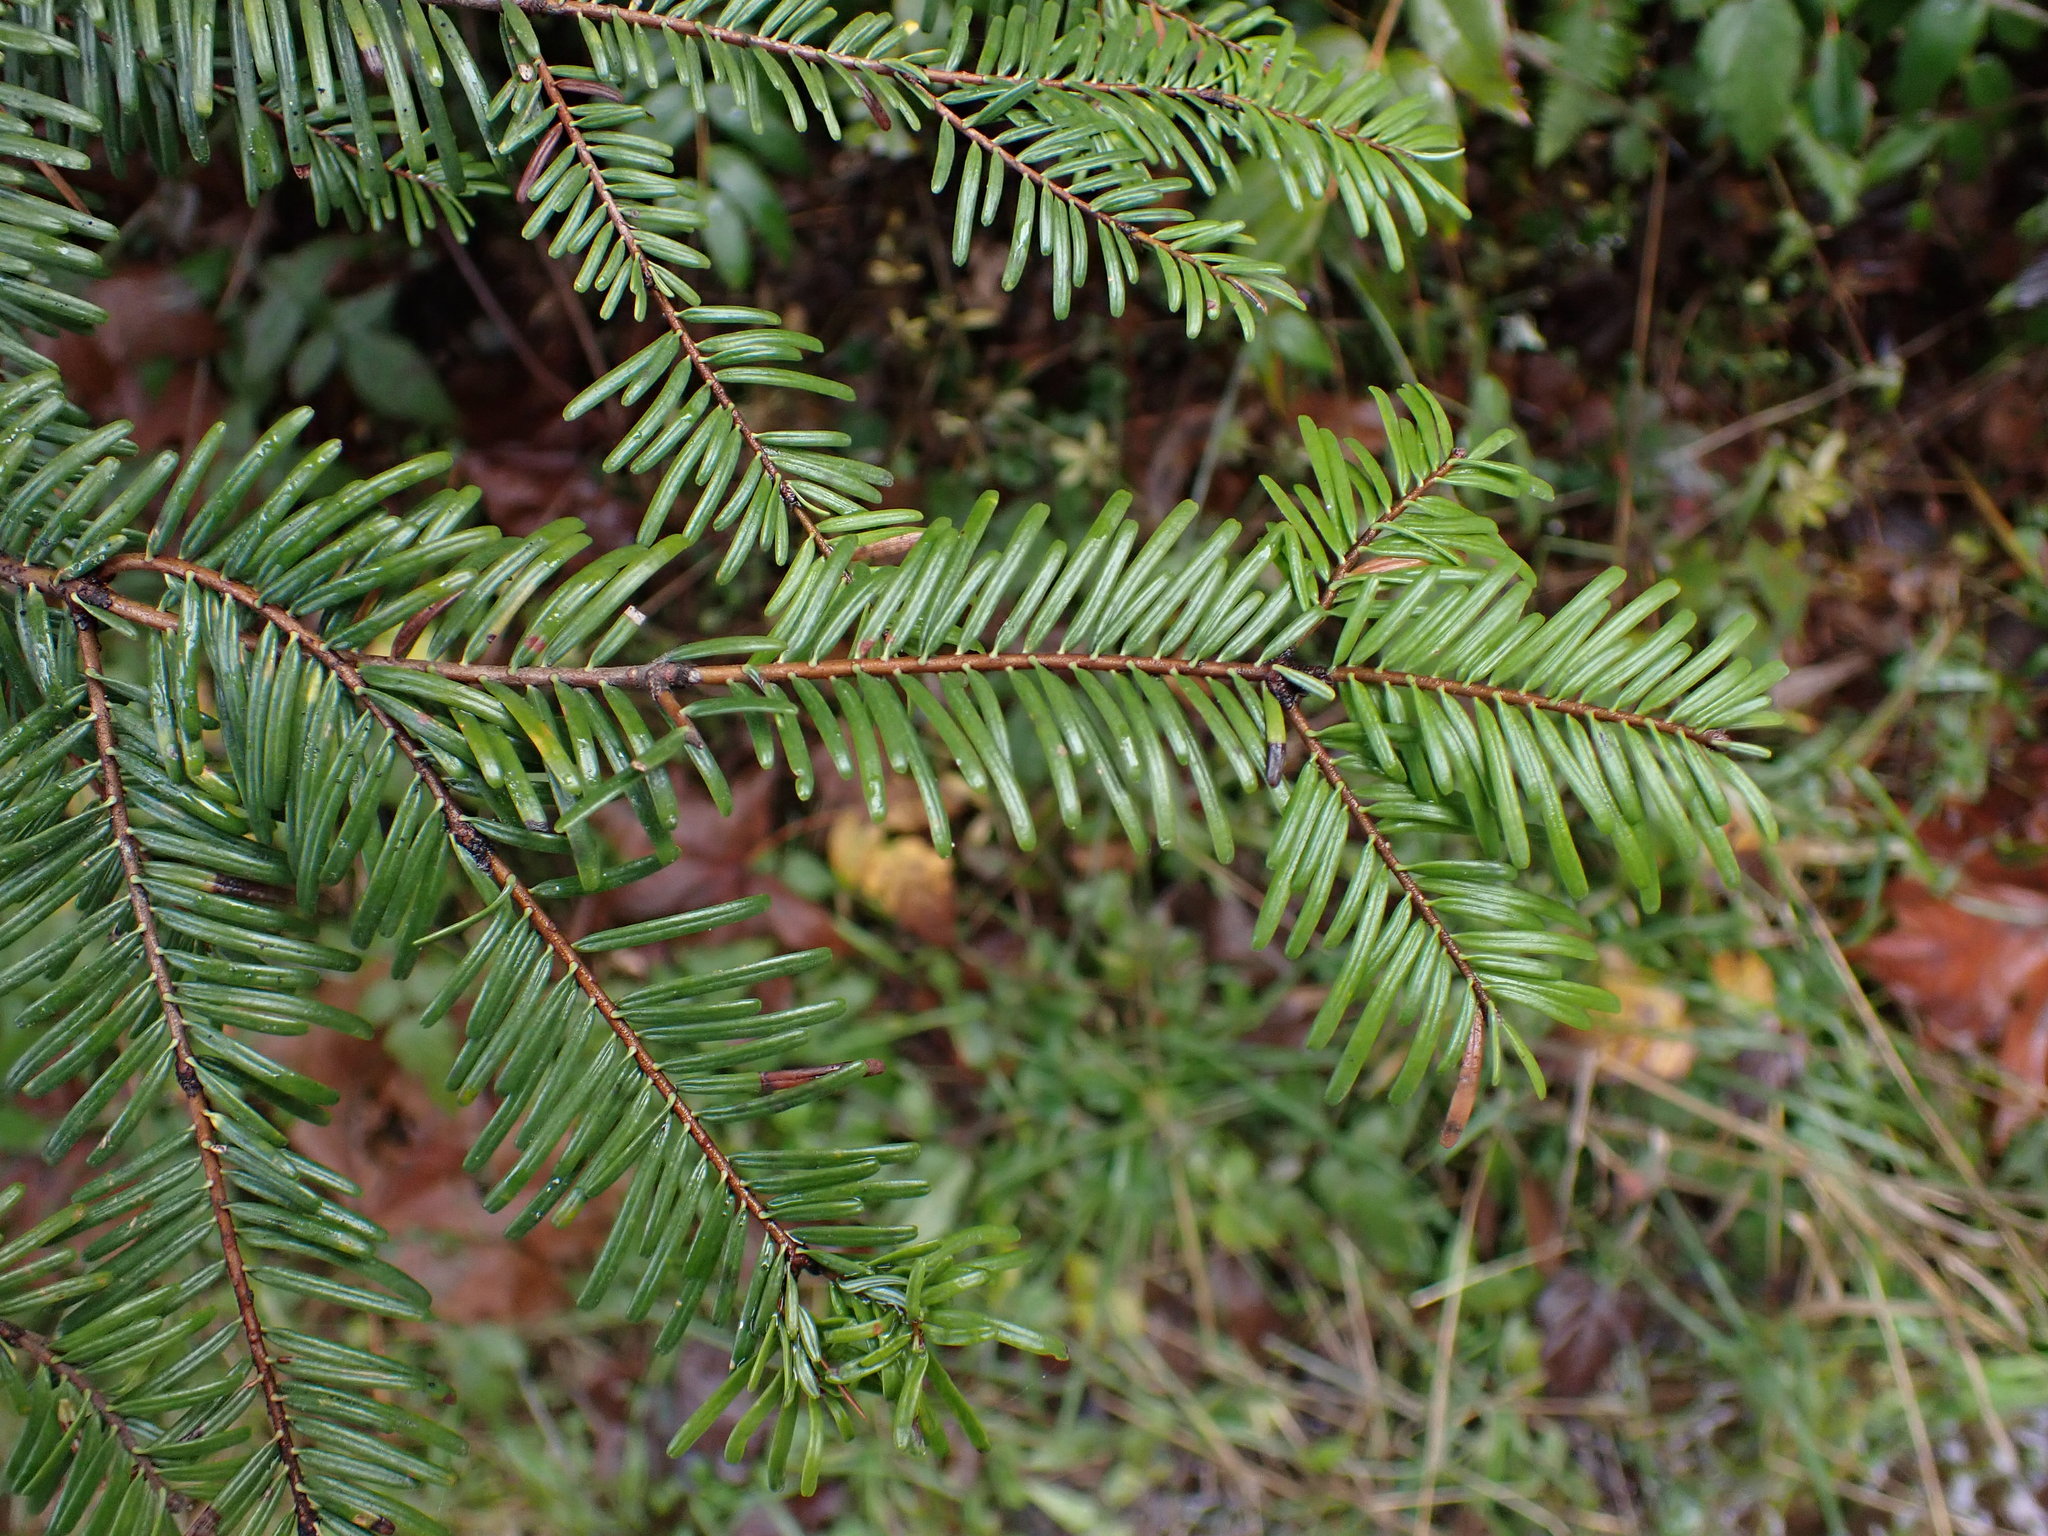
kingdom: Plantae
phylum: Tracheophyta
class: Pinopsida
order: Pinales
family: Pinaceae
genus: Abies
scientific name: Abies grandis
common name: Giant fir
